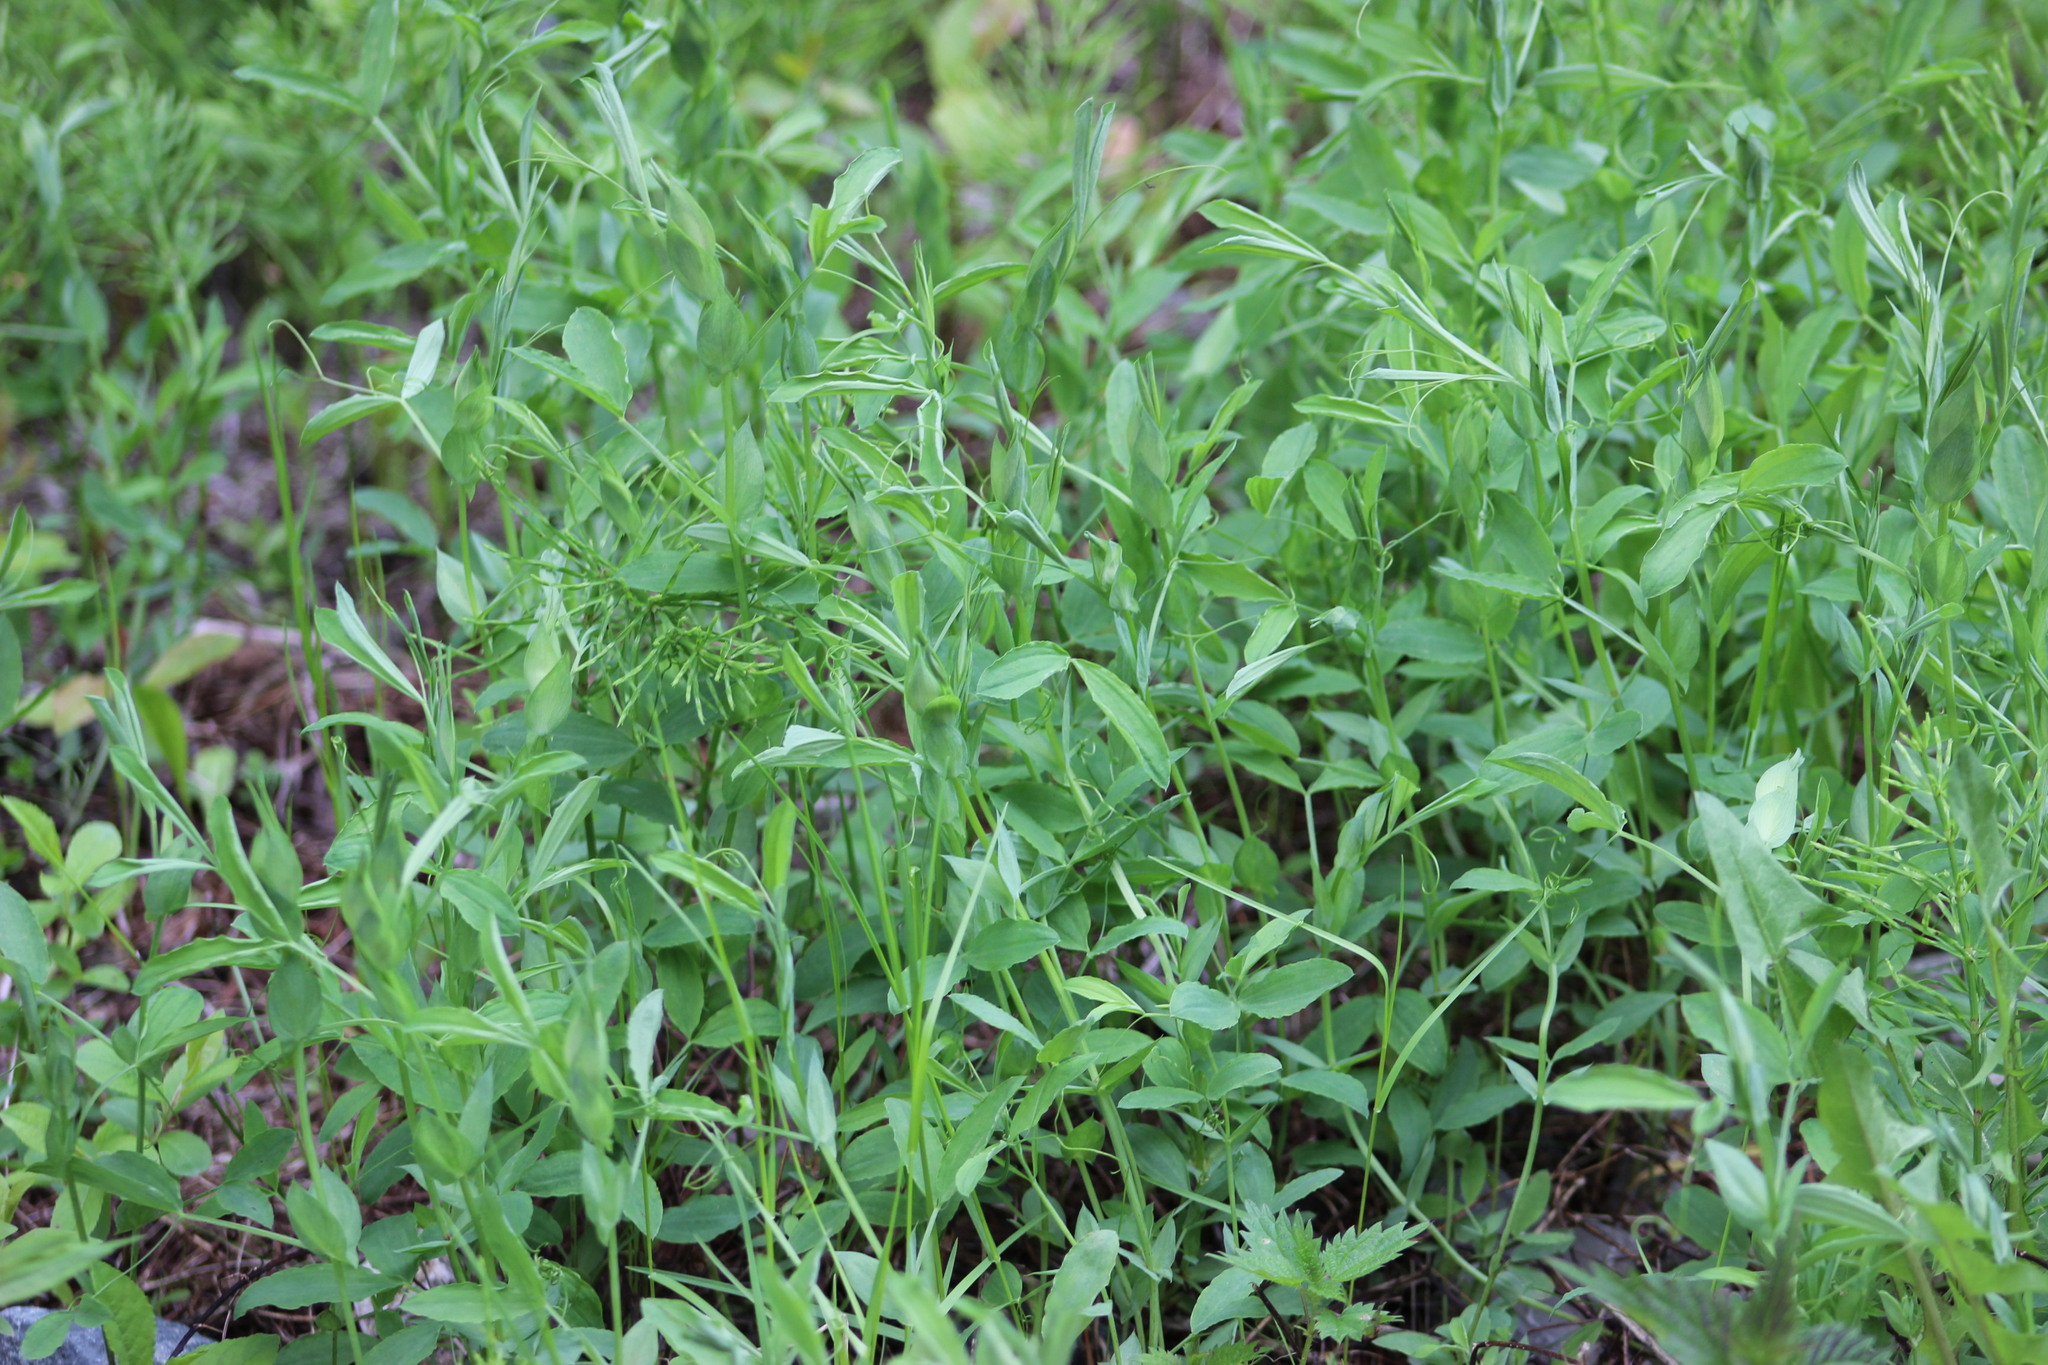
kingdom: Plantae
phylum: Tracheophyta
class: Magnoliopsida
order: Fabales
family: Fabaceae
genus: Lathyrus
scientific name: Lathyrus pratensis
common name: Meadow vetchling
